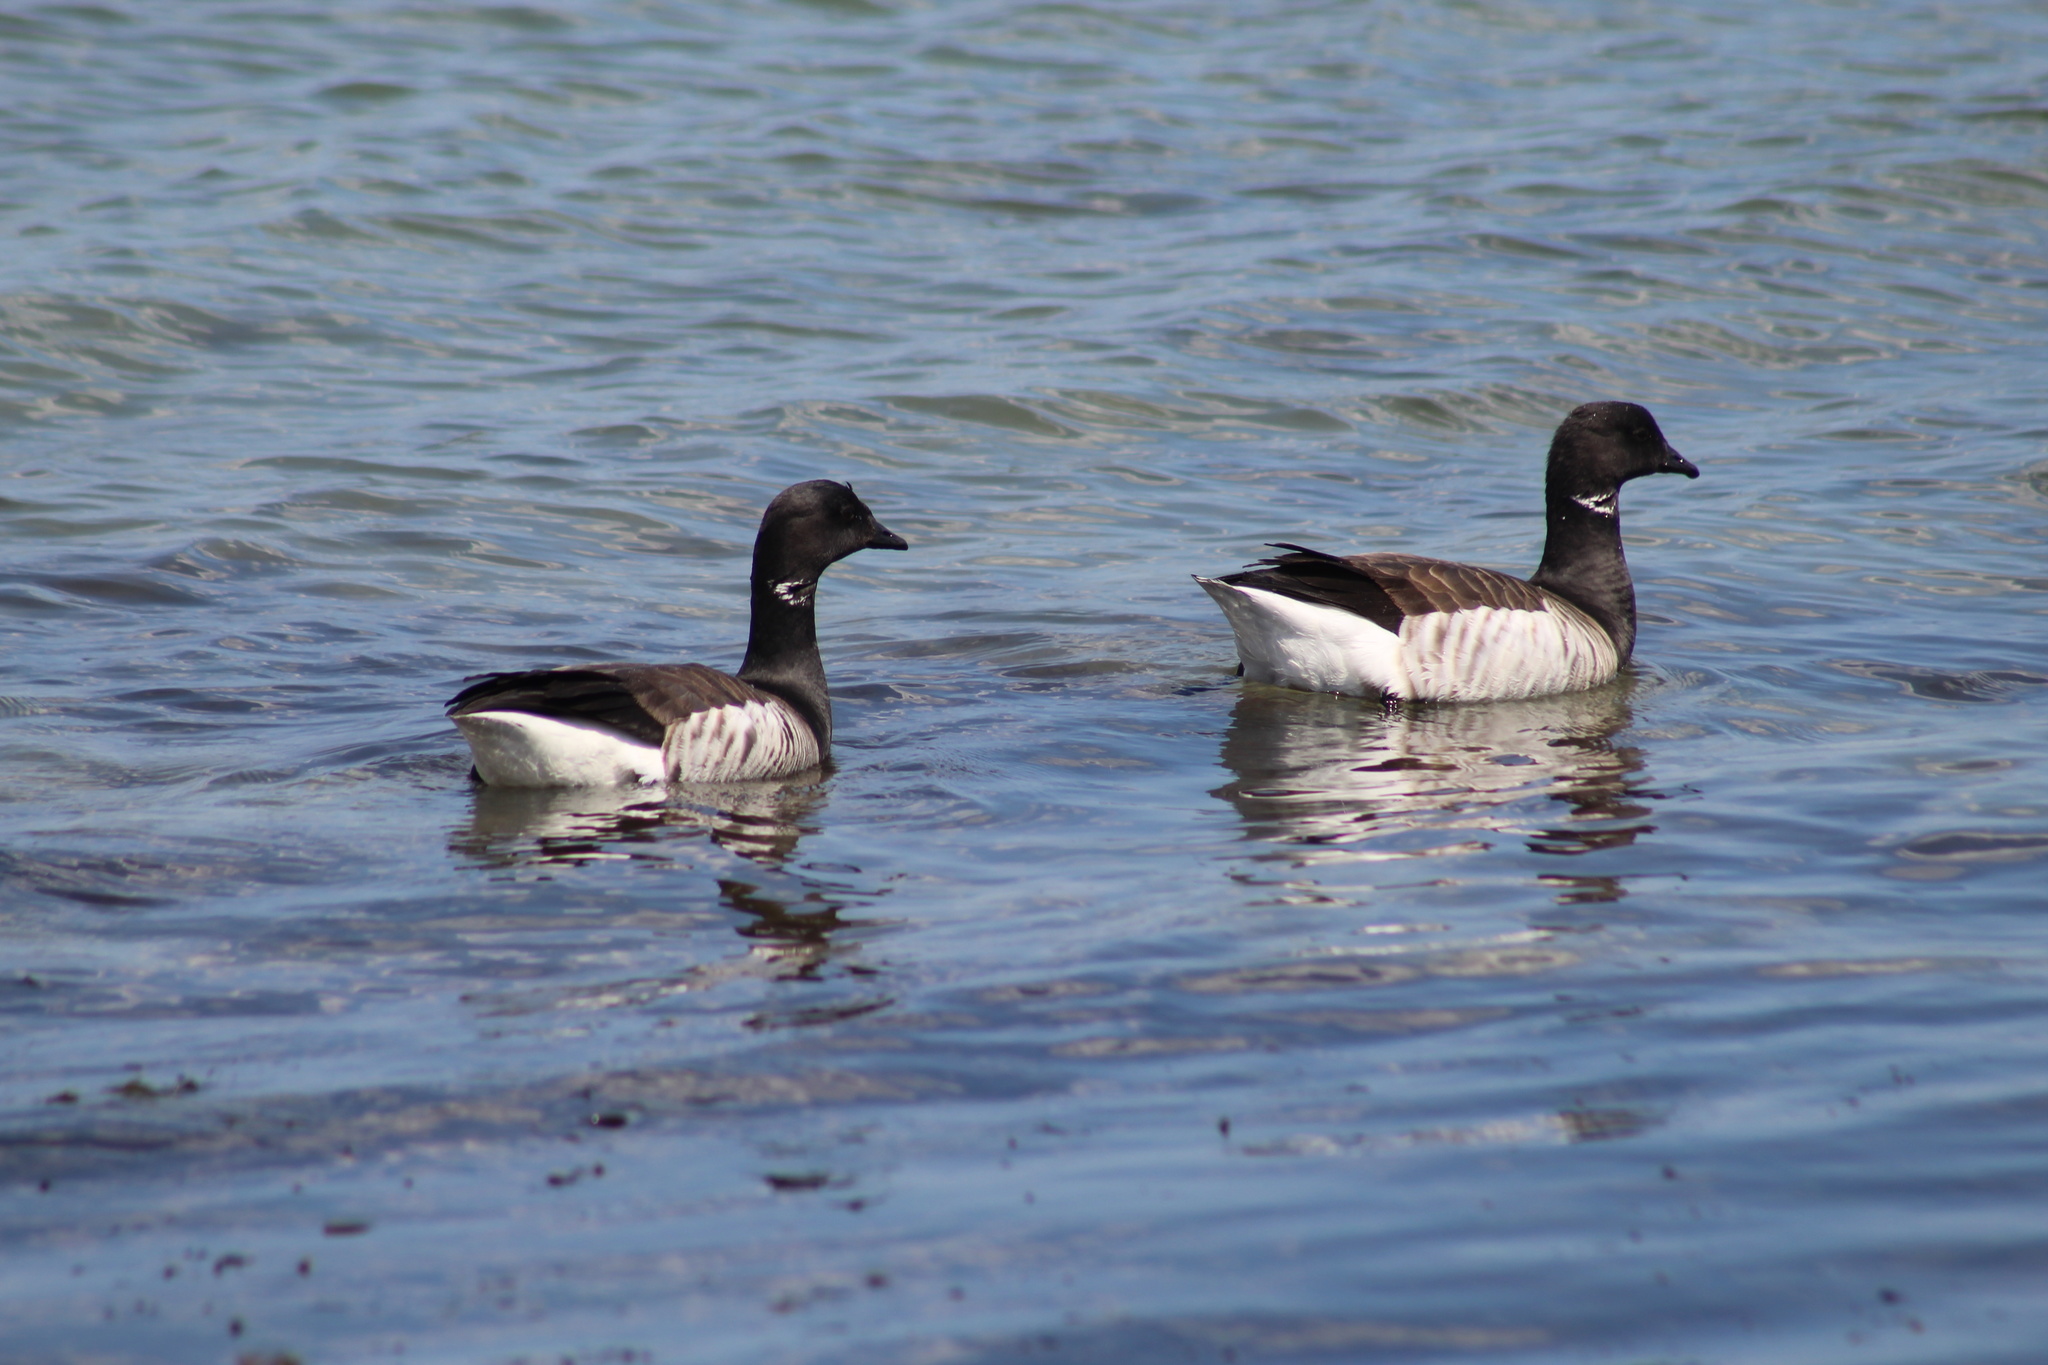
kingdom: Animalia
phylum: Chordata
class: Aves
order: Anseriformes
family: Anatidae
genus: Branta
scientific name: Branta bernicla
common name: Brant goose
